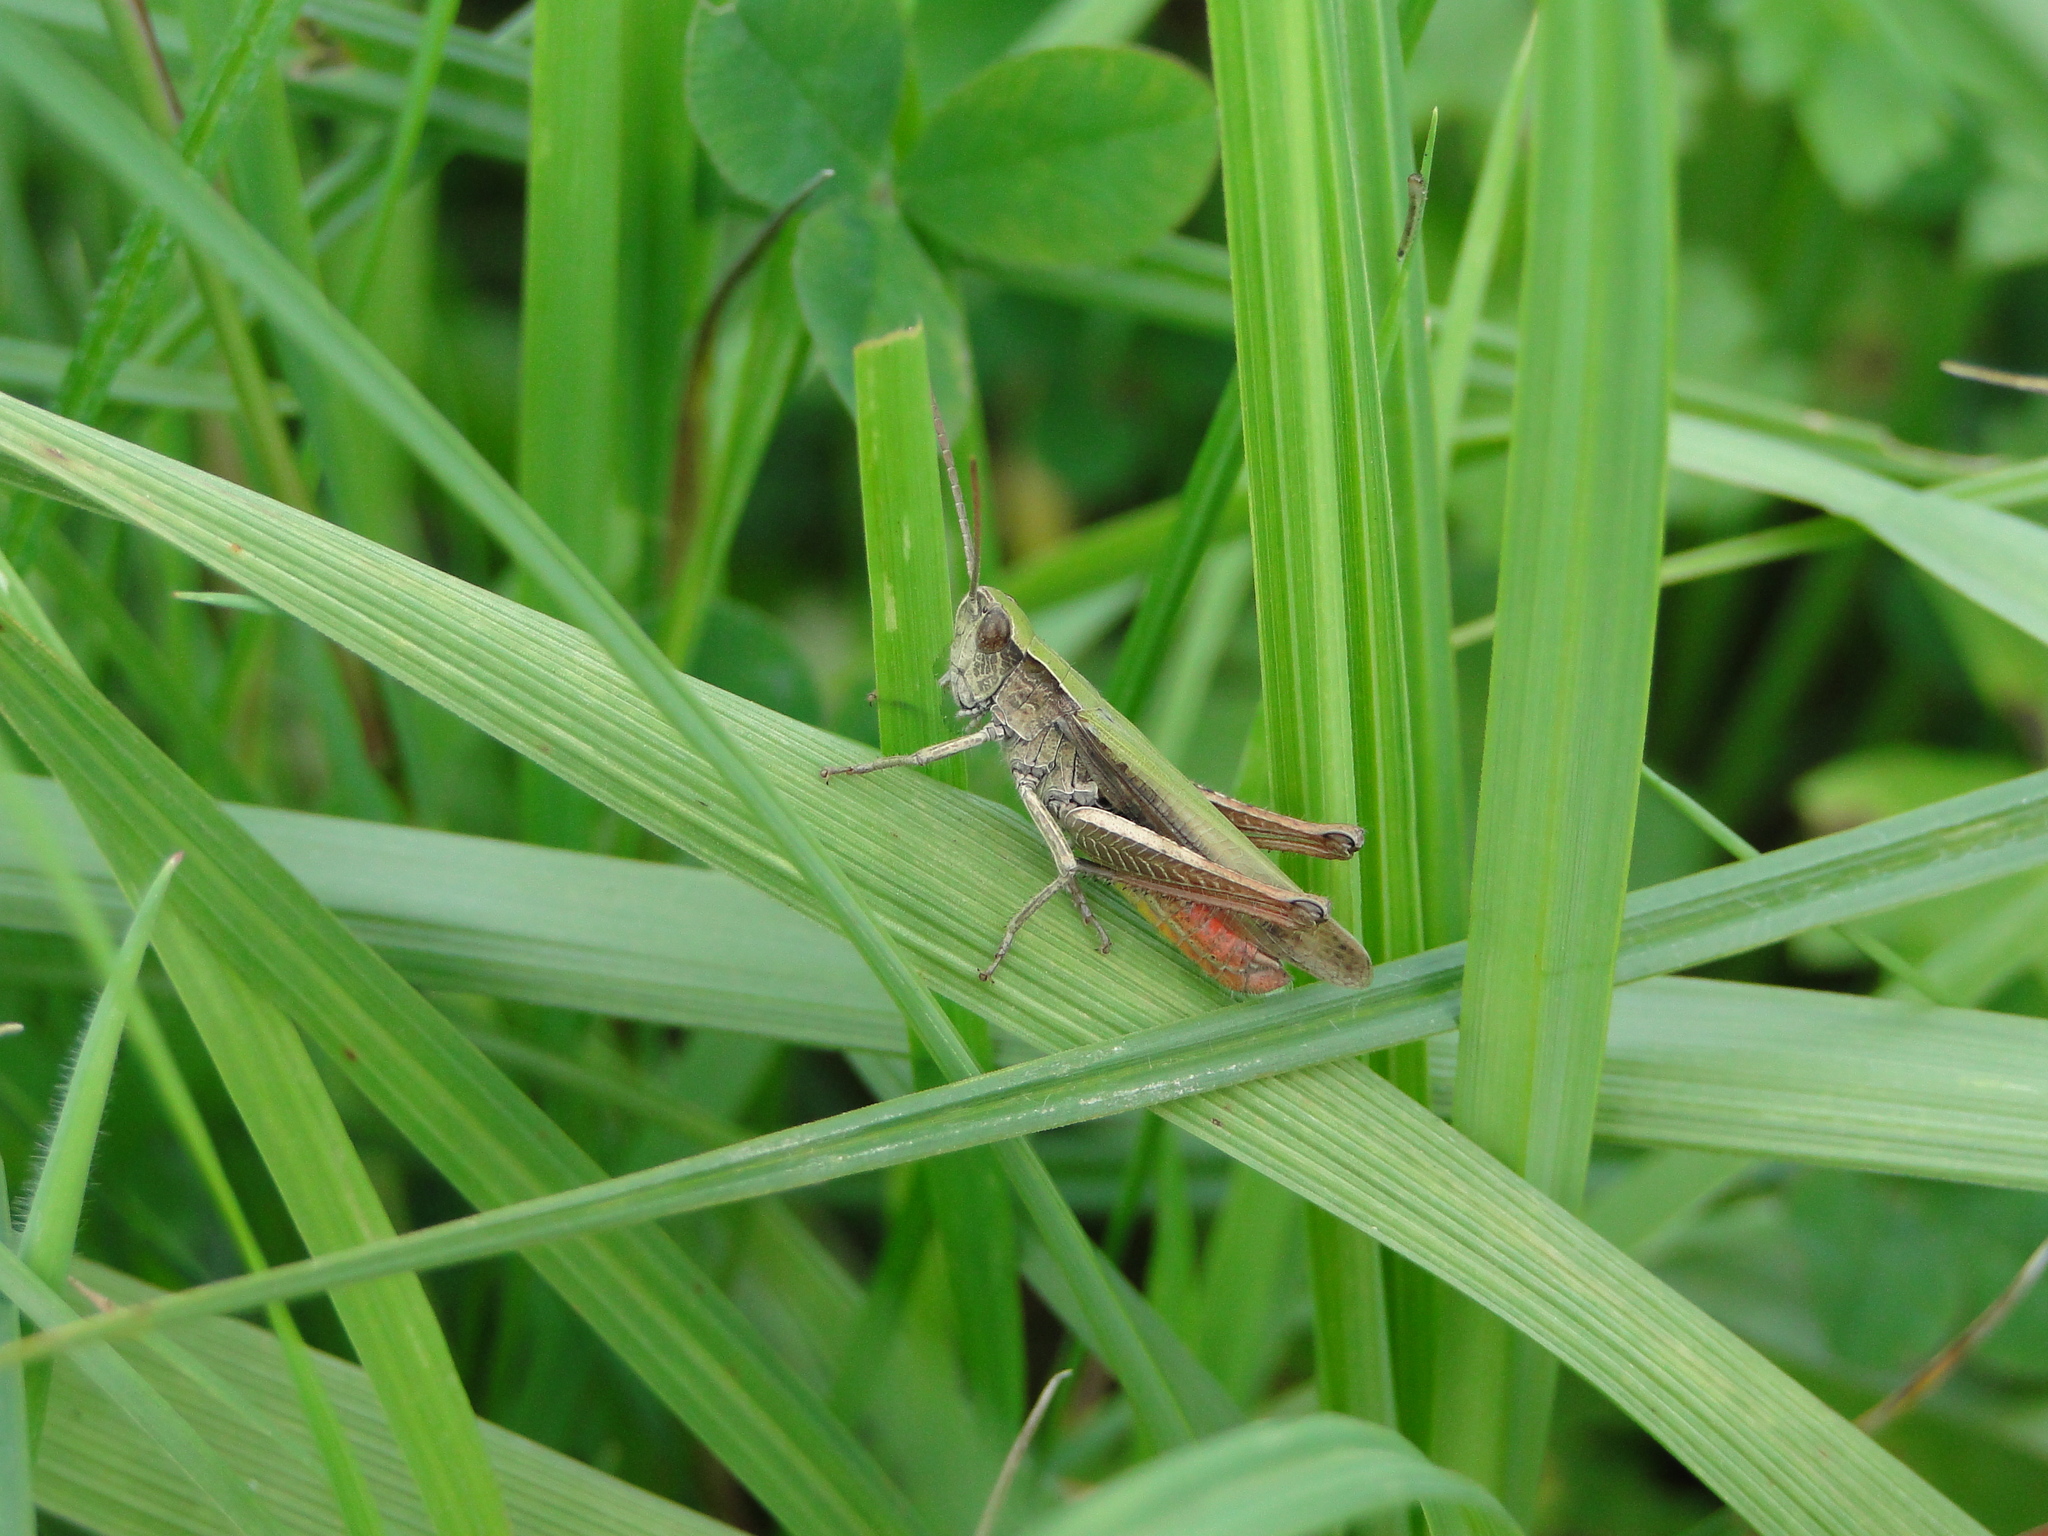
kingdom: Animalia
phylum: Arthropoda
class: Insecta
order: Orthoptera
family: Acrididae
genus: Chorthippus
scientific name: Chorthippus dorsatus
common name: Steppe grasshopper
